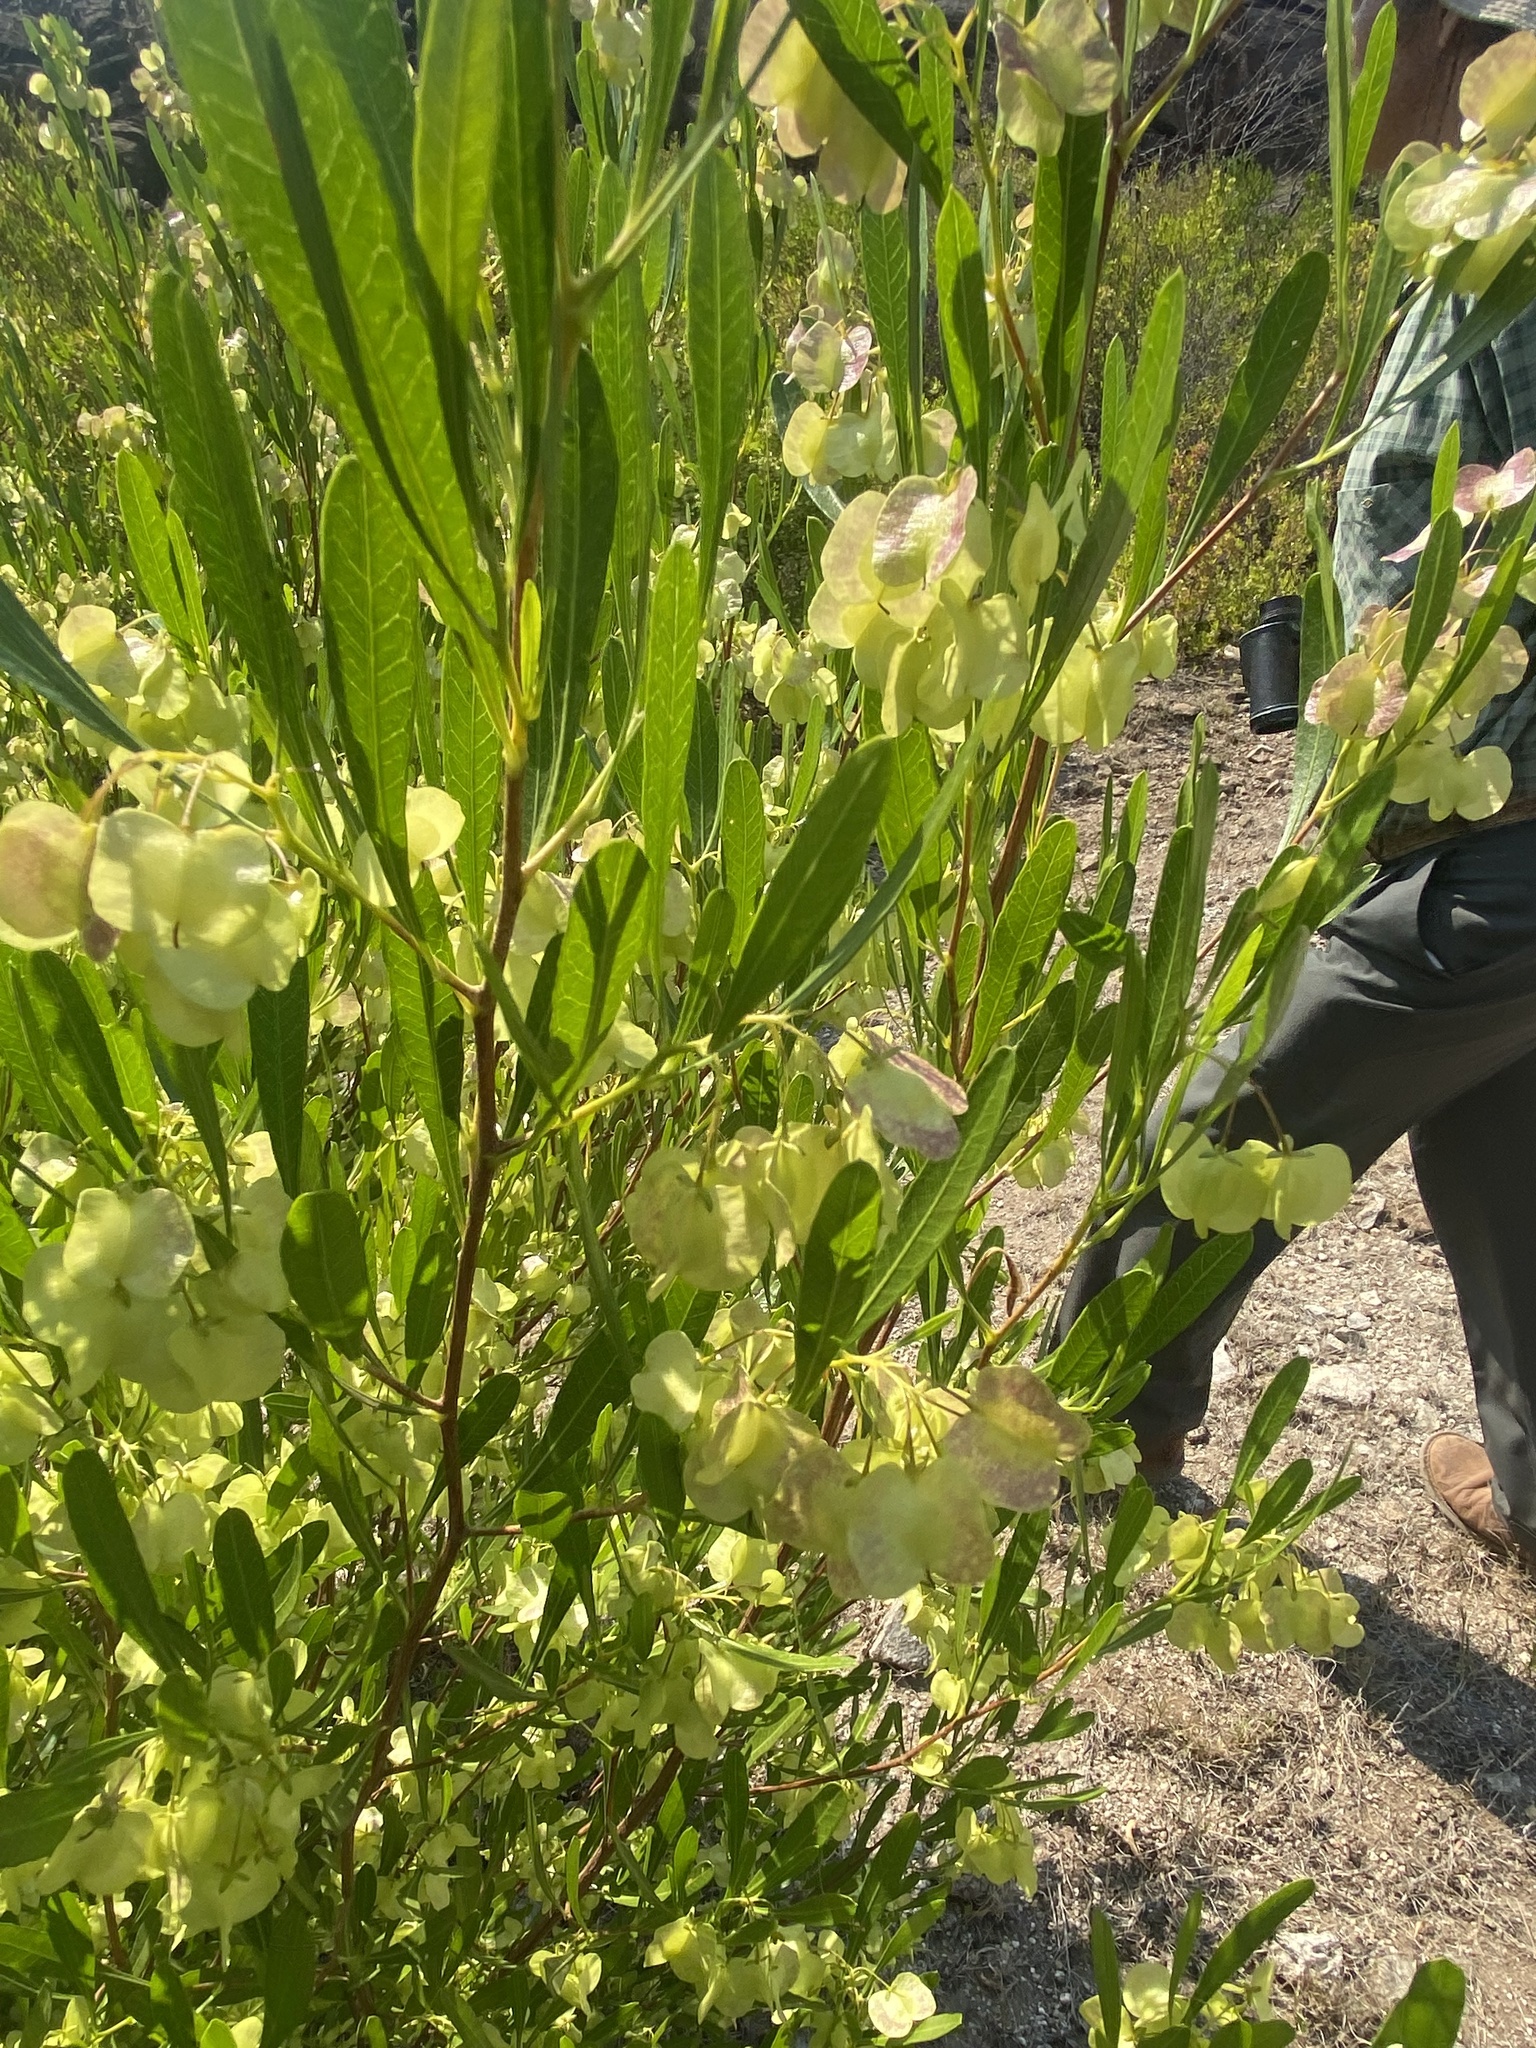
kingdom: Plantae
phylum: Tracheophyta
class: Magnoliopsida
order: Sapindales
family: Sapindaceae
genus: Dodonaea
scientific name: Dodonaea viscosa
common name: Hopbush
